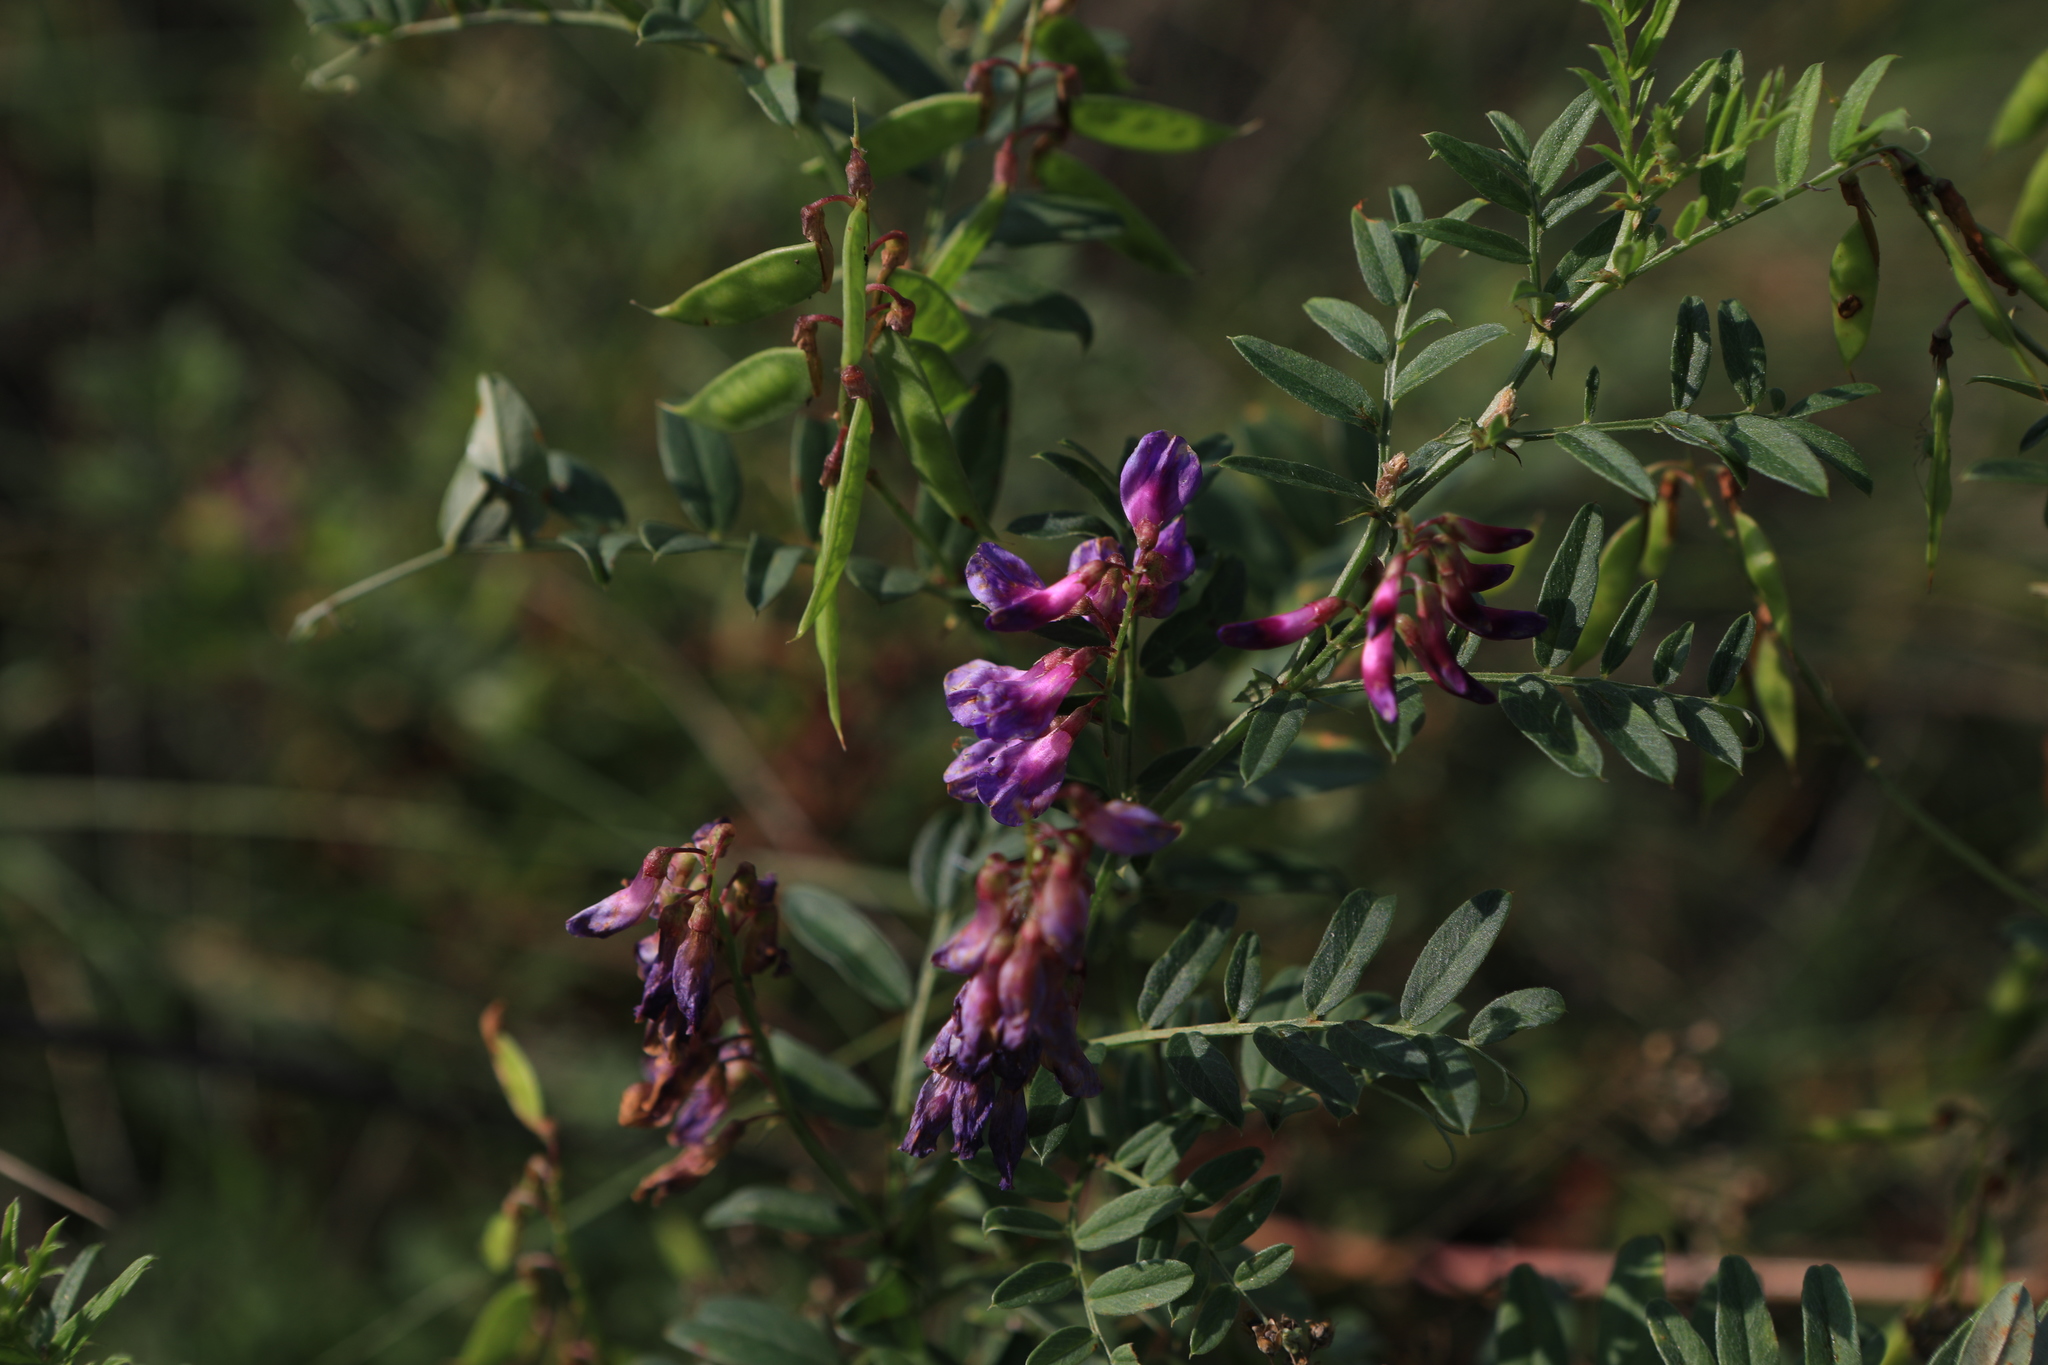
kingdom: Plantae
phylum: Tracheophyta
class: Magnoliopsida
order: Fabales
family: Fabaceae
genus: Vicia
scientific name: Vicia amoena
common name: Cheder ebs
